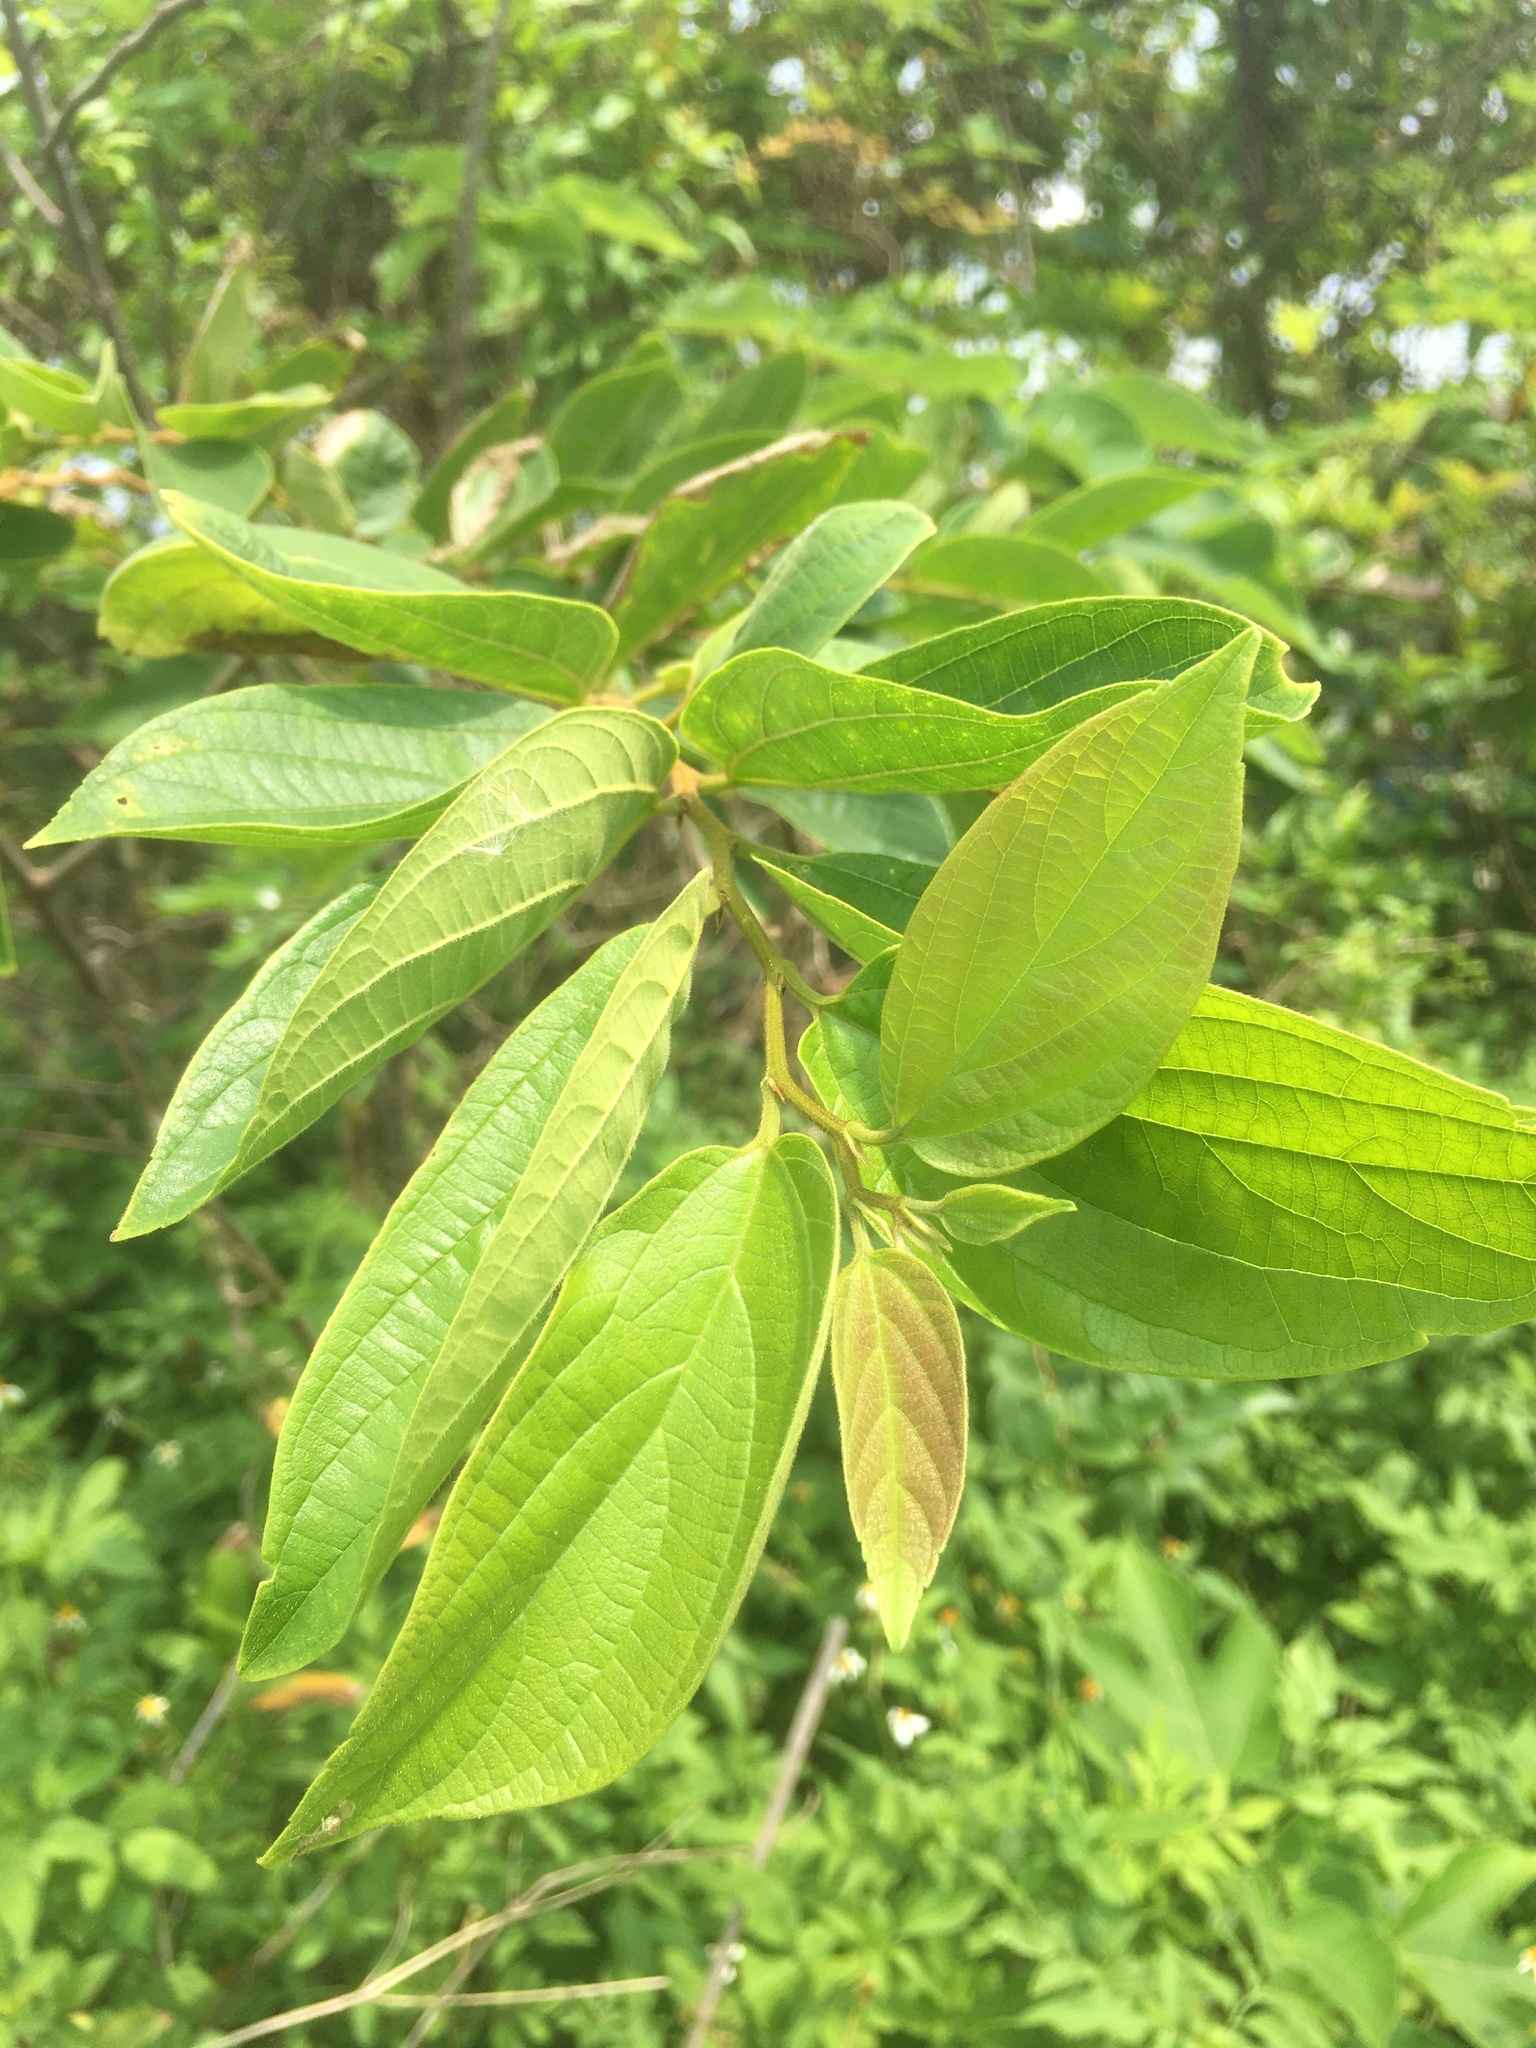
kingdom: Plantae
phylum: Tracheophyta
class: Magnoliopsida
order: Rosales
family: Cannabaceae
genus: Celtis
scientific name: Celtis sinensis
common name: Chinese hackberry
